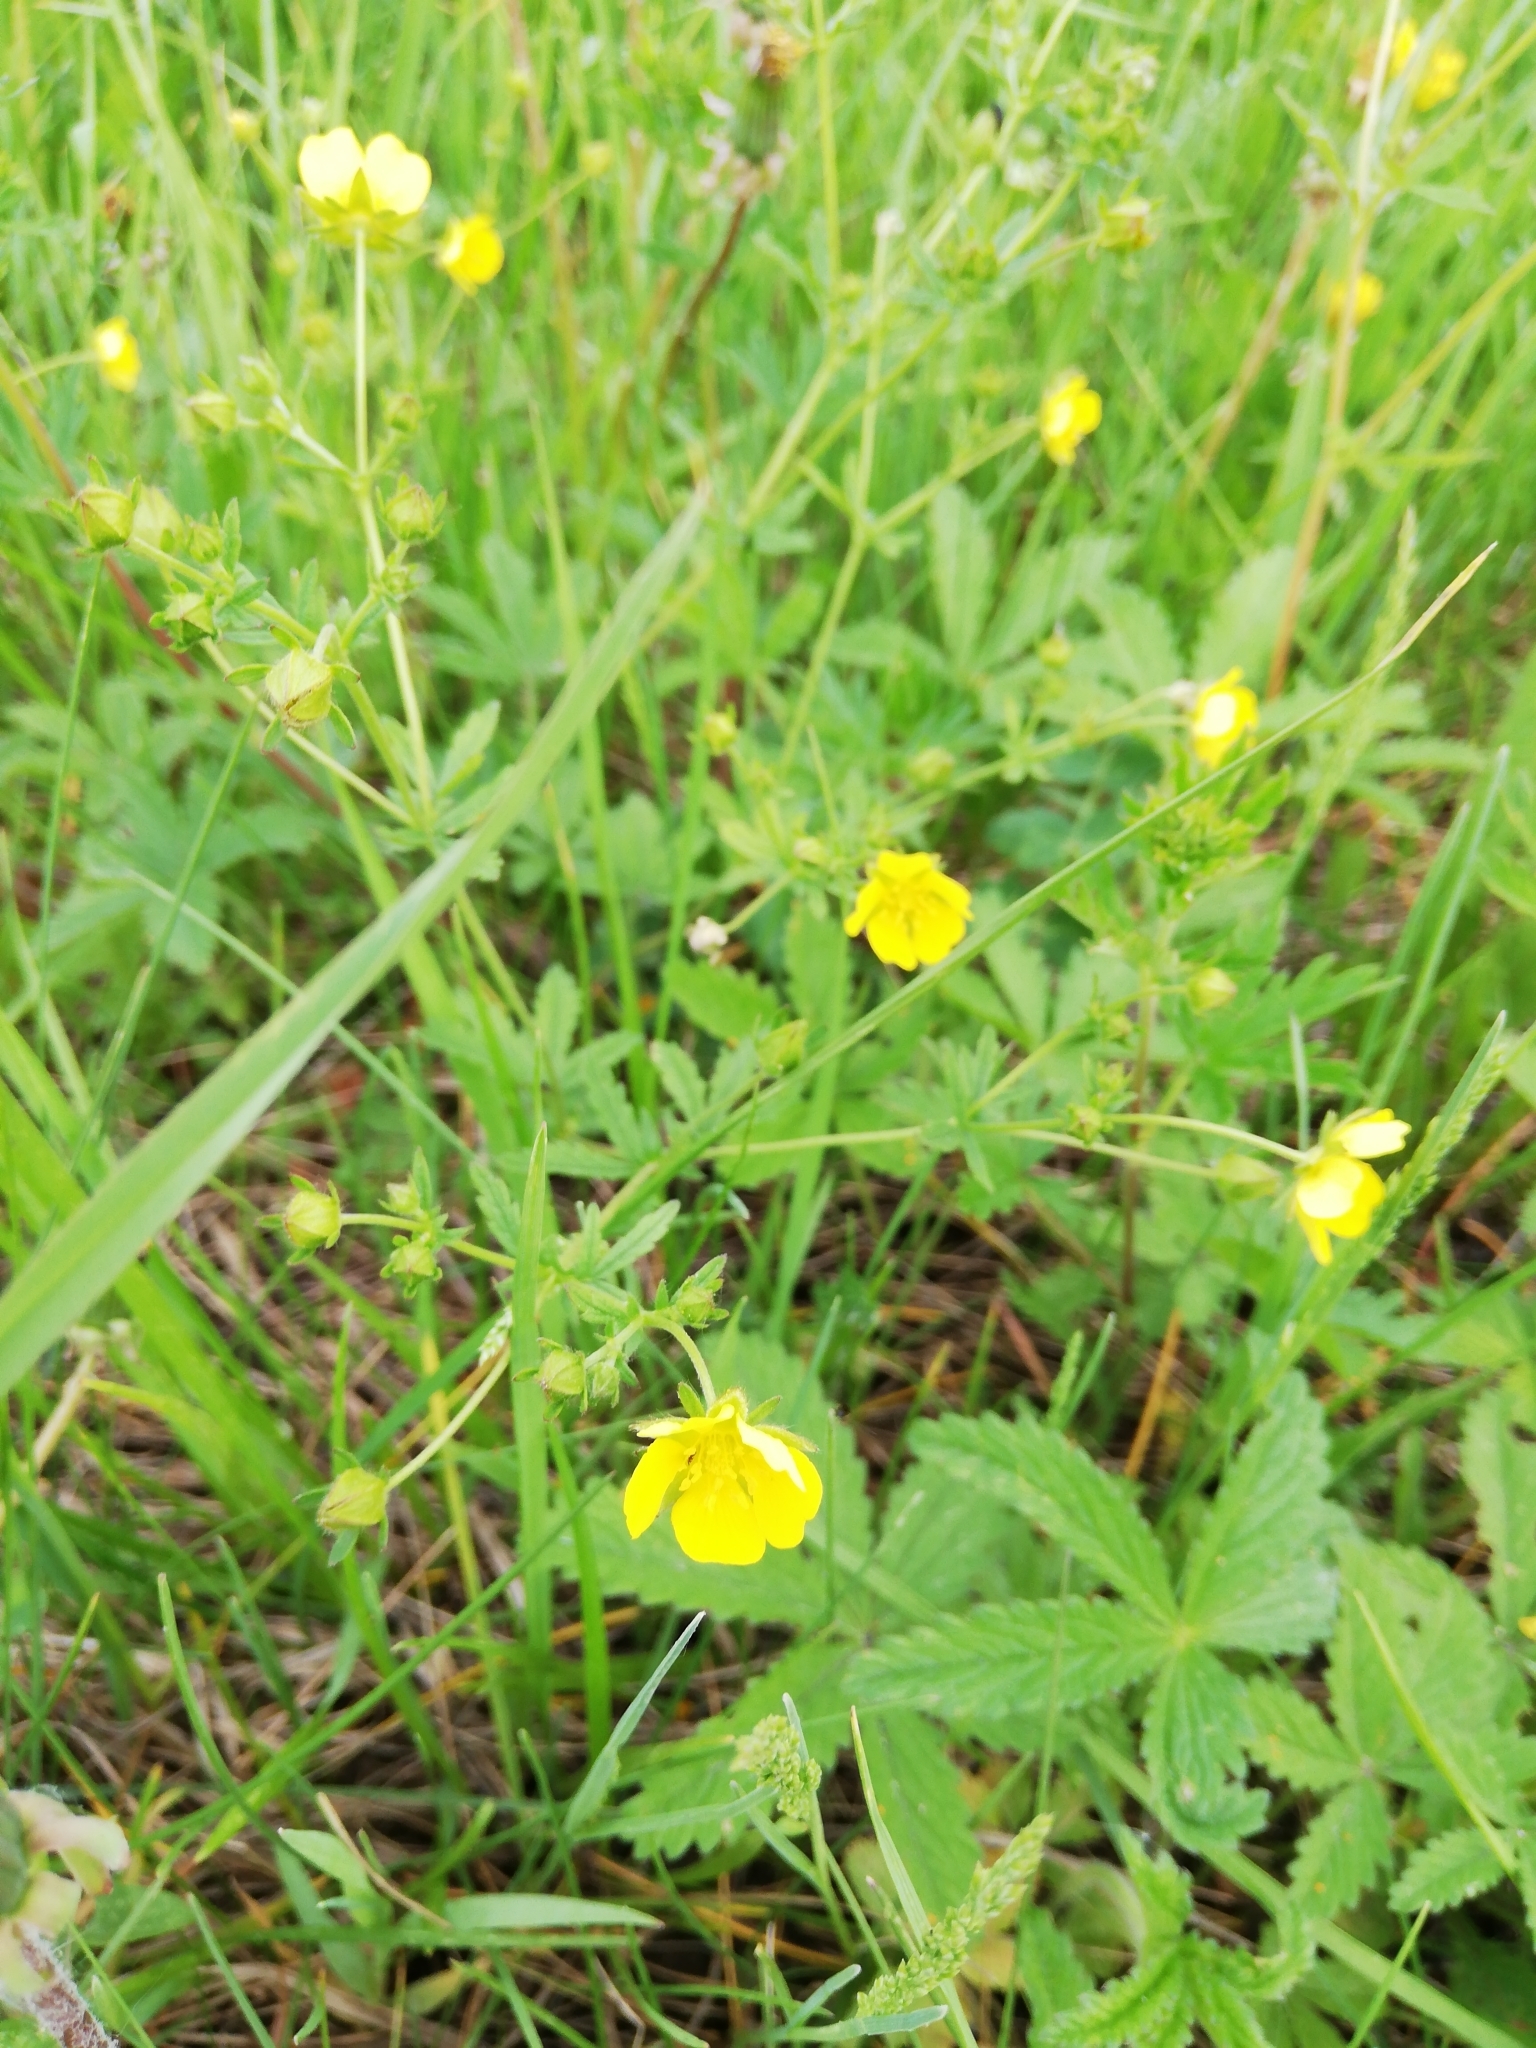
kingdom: Plantae
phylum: Tracheophyta
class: Magnoliopsida
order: Rosales
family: Rosaceae
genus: Potentilla
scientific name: Potentilla chrysantha
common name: Thuringian cinquefoil
